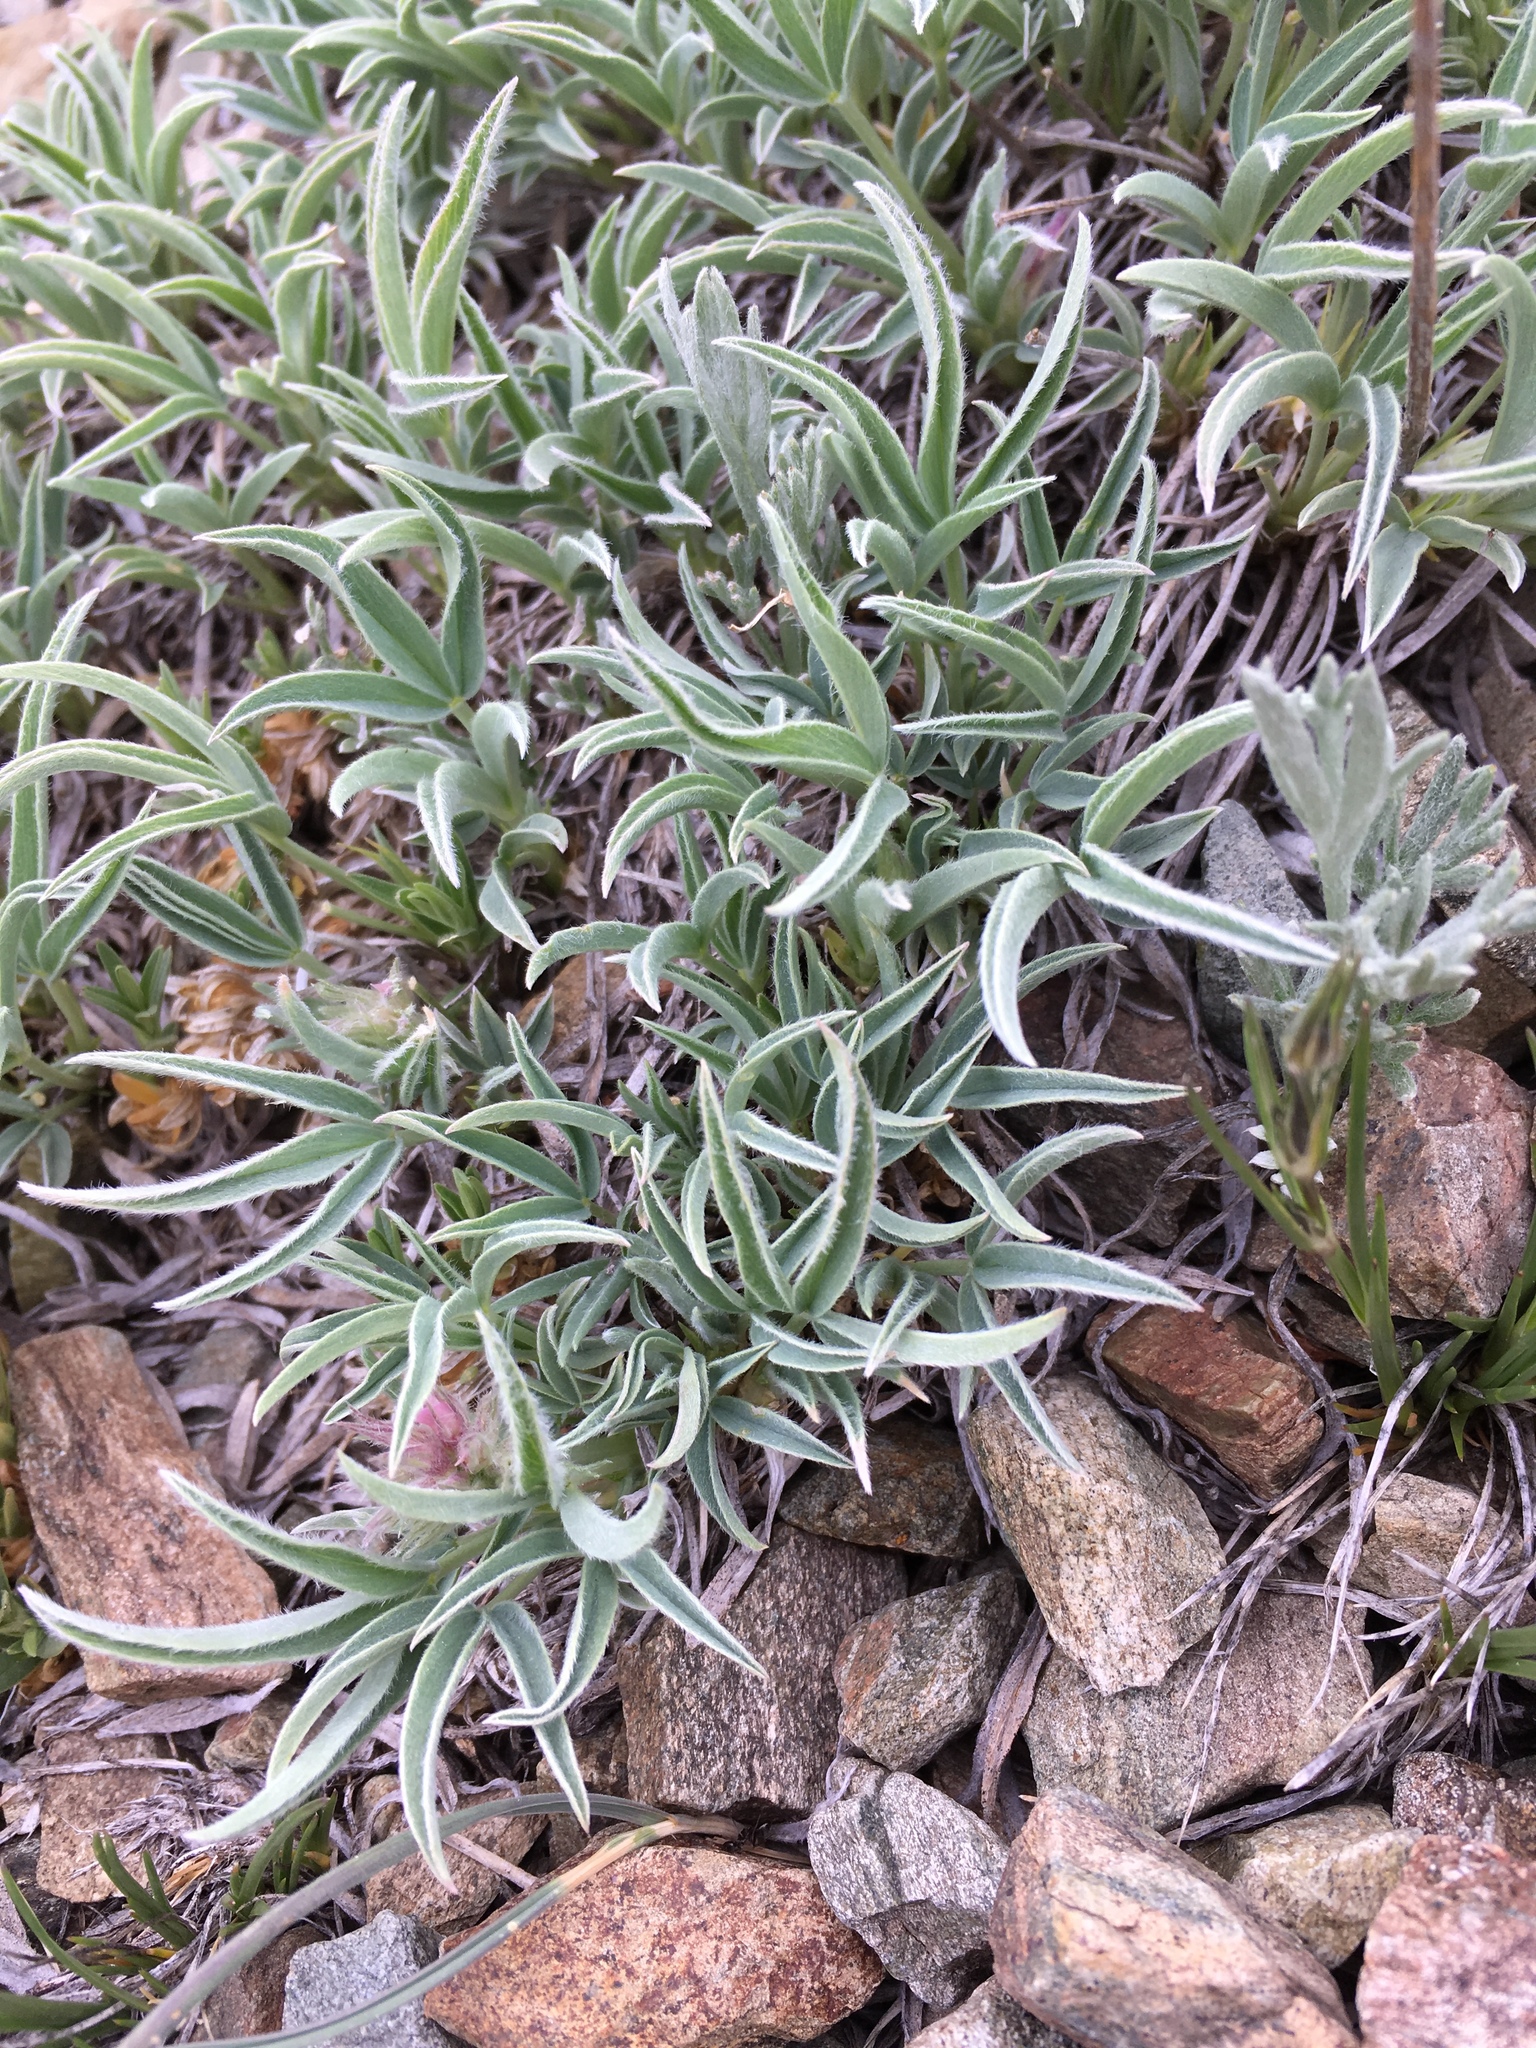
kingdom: Plantae
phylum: Tracheophyta
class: Magnoliopsida
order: Fabales
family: Fabaceae
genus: Trifolium
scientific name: Trifolium attenuatum
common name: Rocky mountain clover
